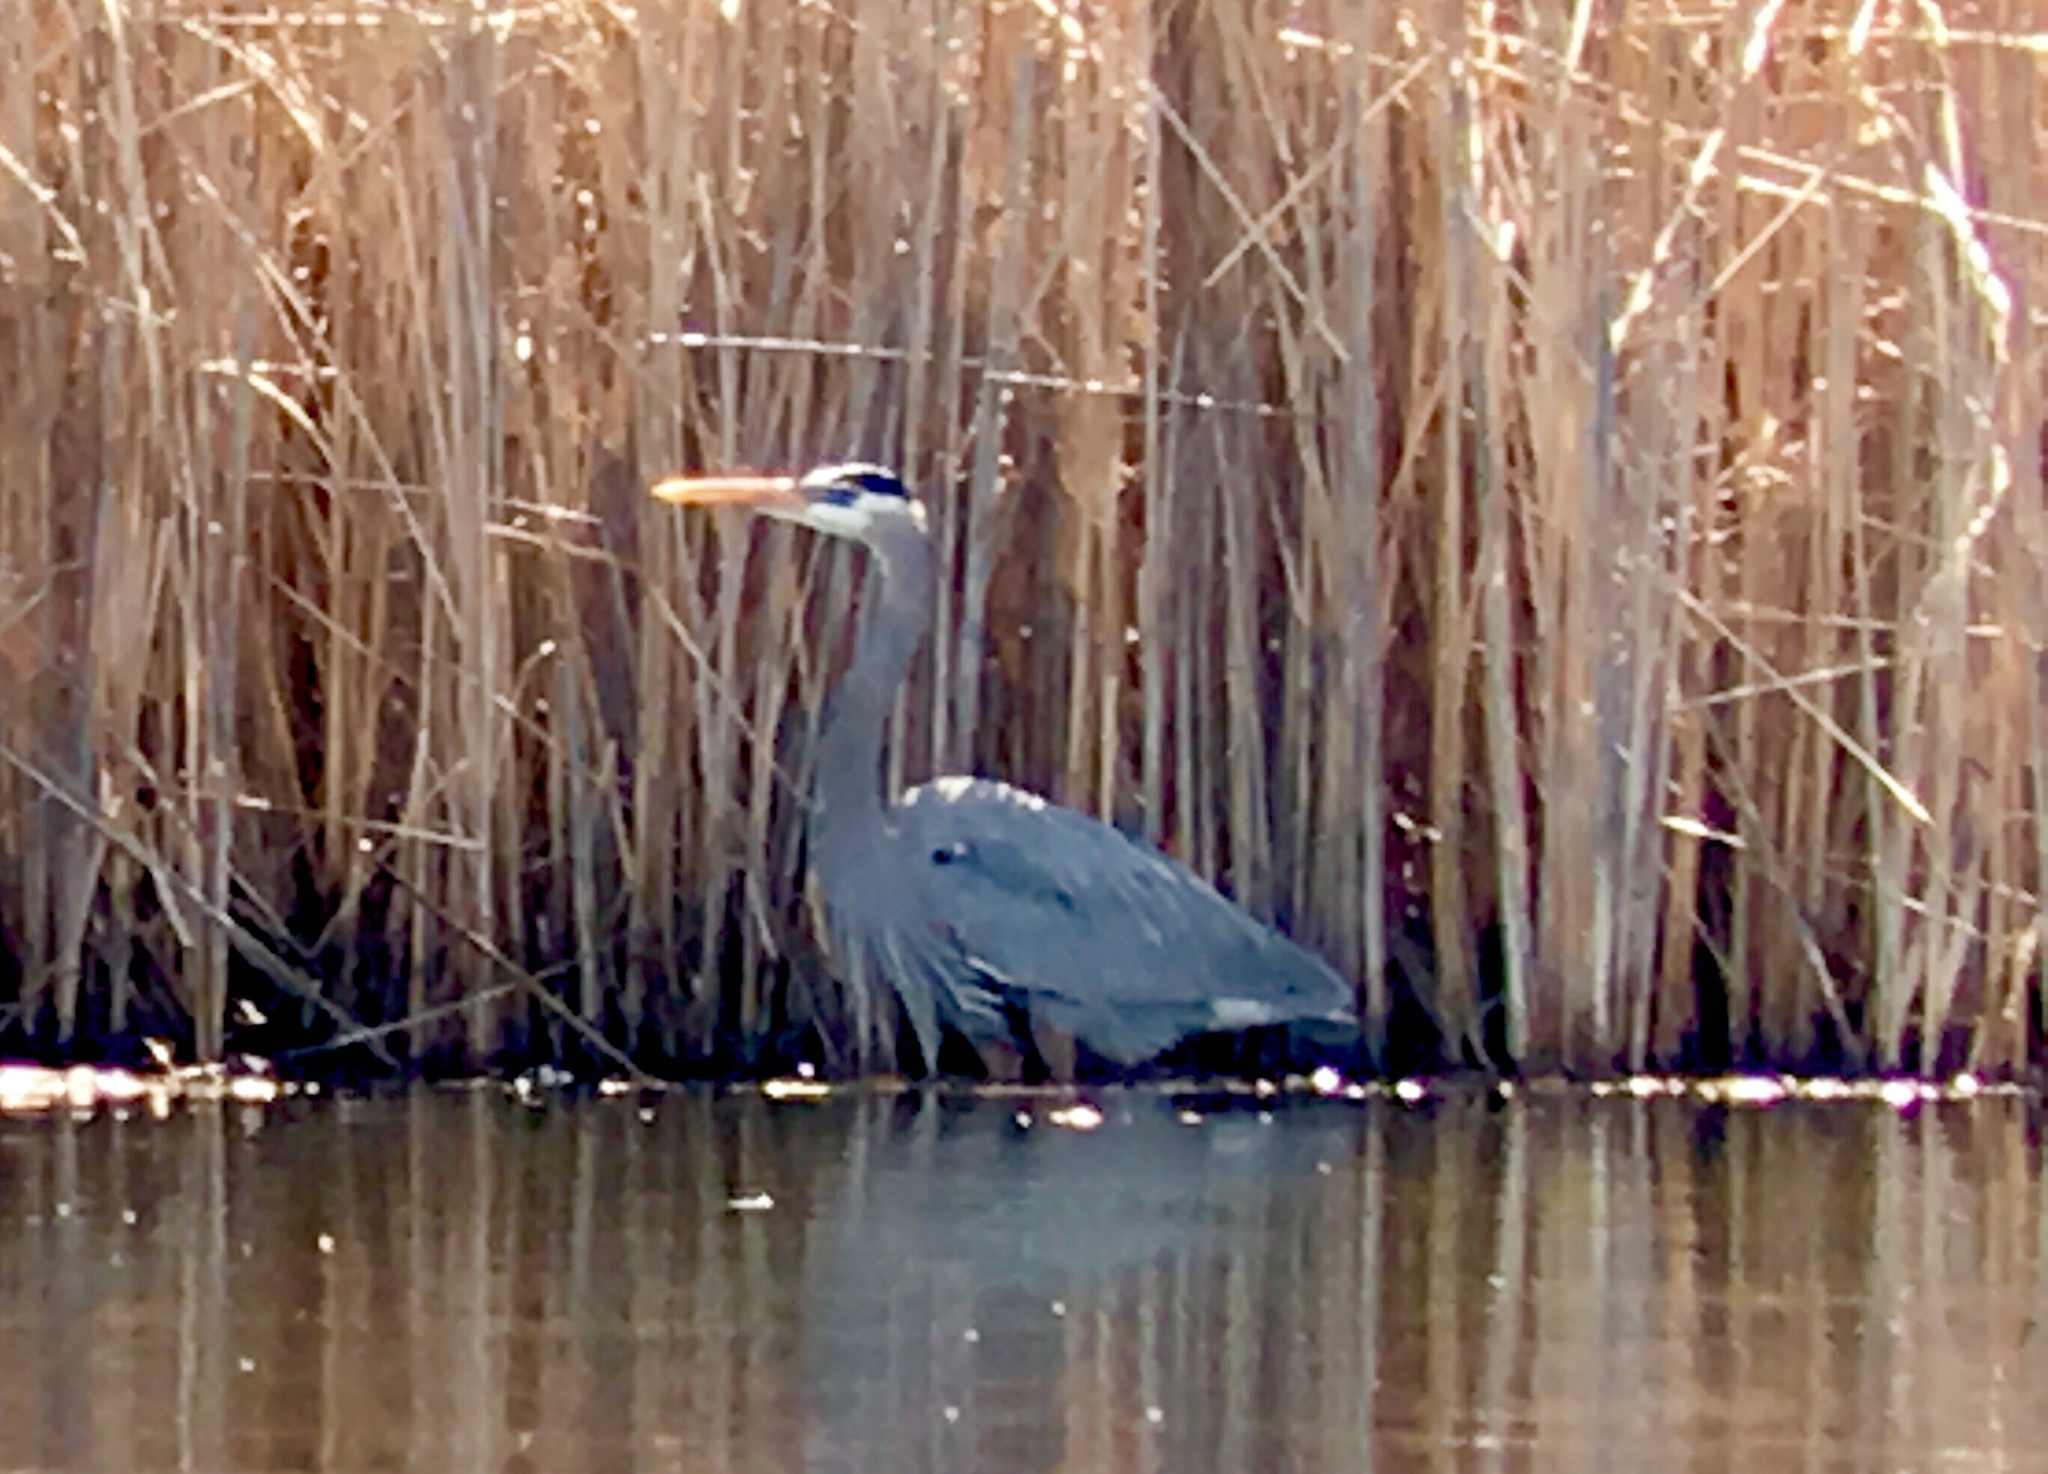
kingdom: Animalia
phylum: Chordata
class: Aves
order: Pelecaniformes
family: Ardeidae
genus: Ardea
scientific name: Ardea herodias
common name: Great blue heron
